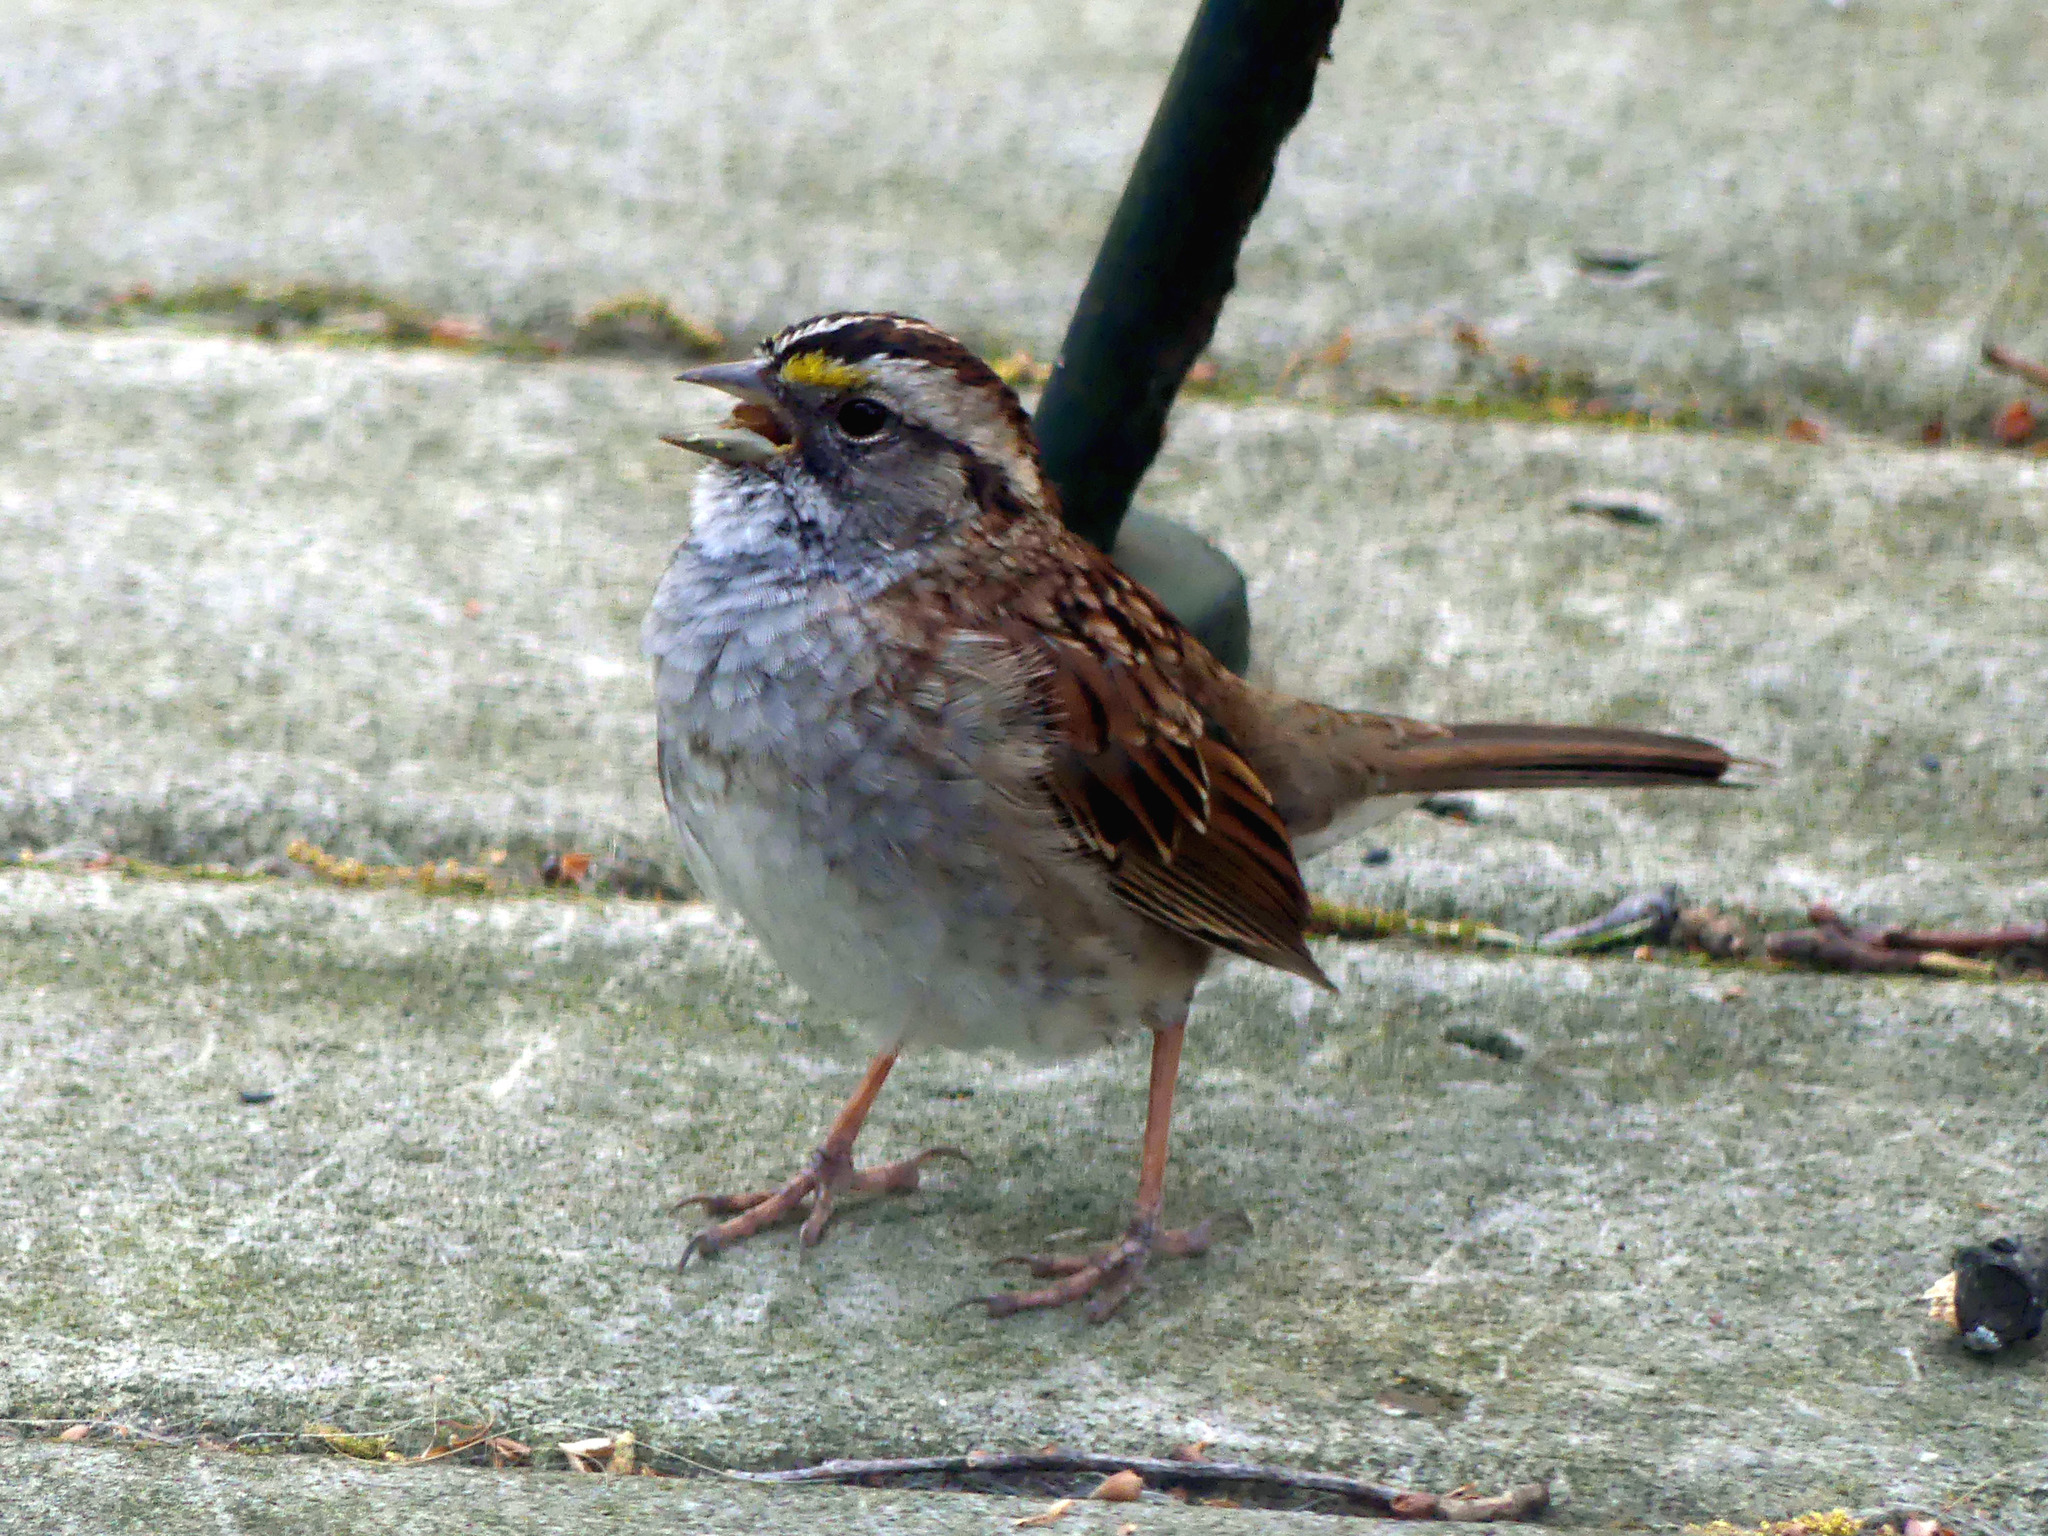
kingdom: Animalia
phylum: Chordata
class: Aves
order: Passeriformes
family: Passerellidae
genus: Zonotrichia
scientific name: Zonotrichia albicollis
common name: White-throated sparrow
